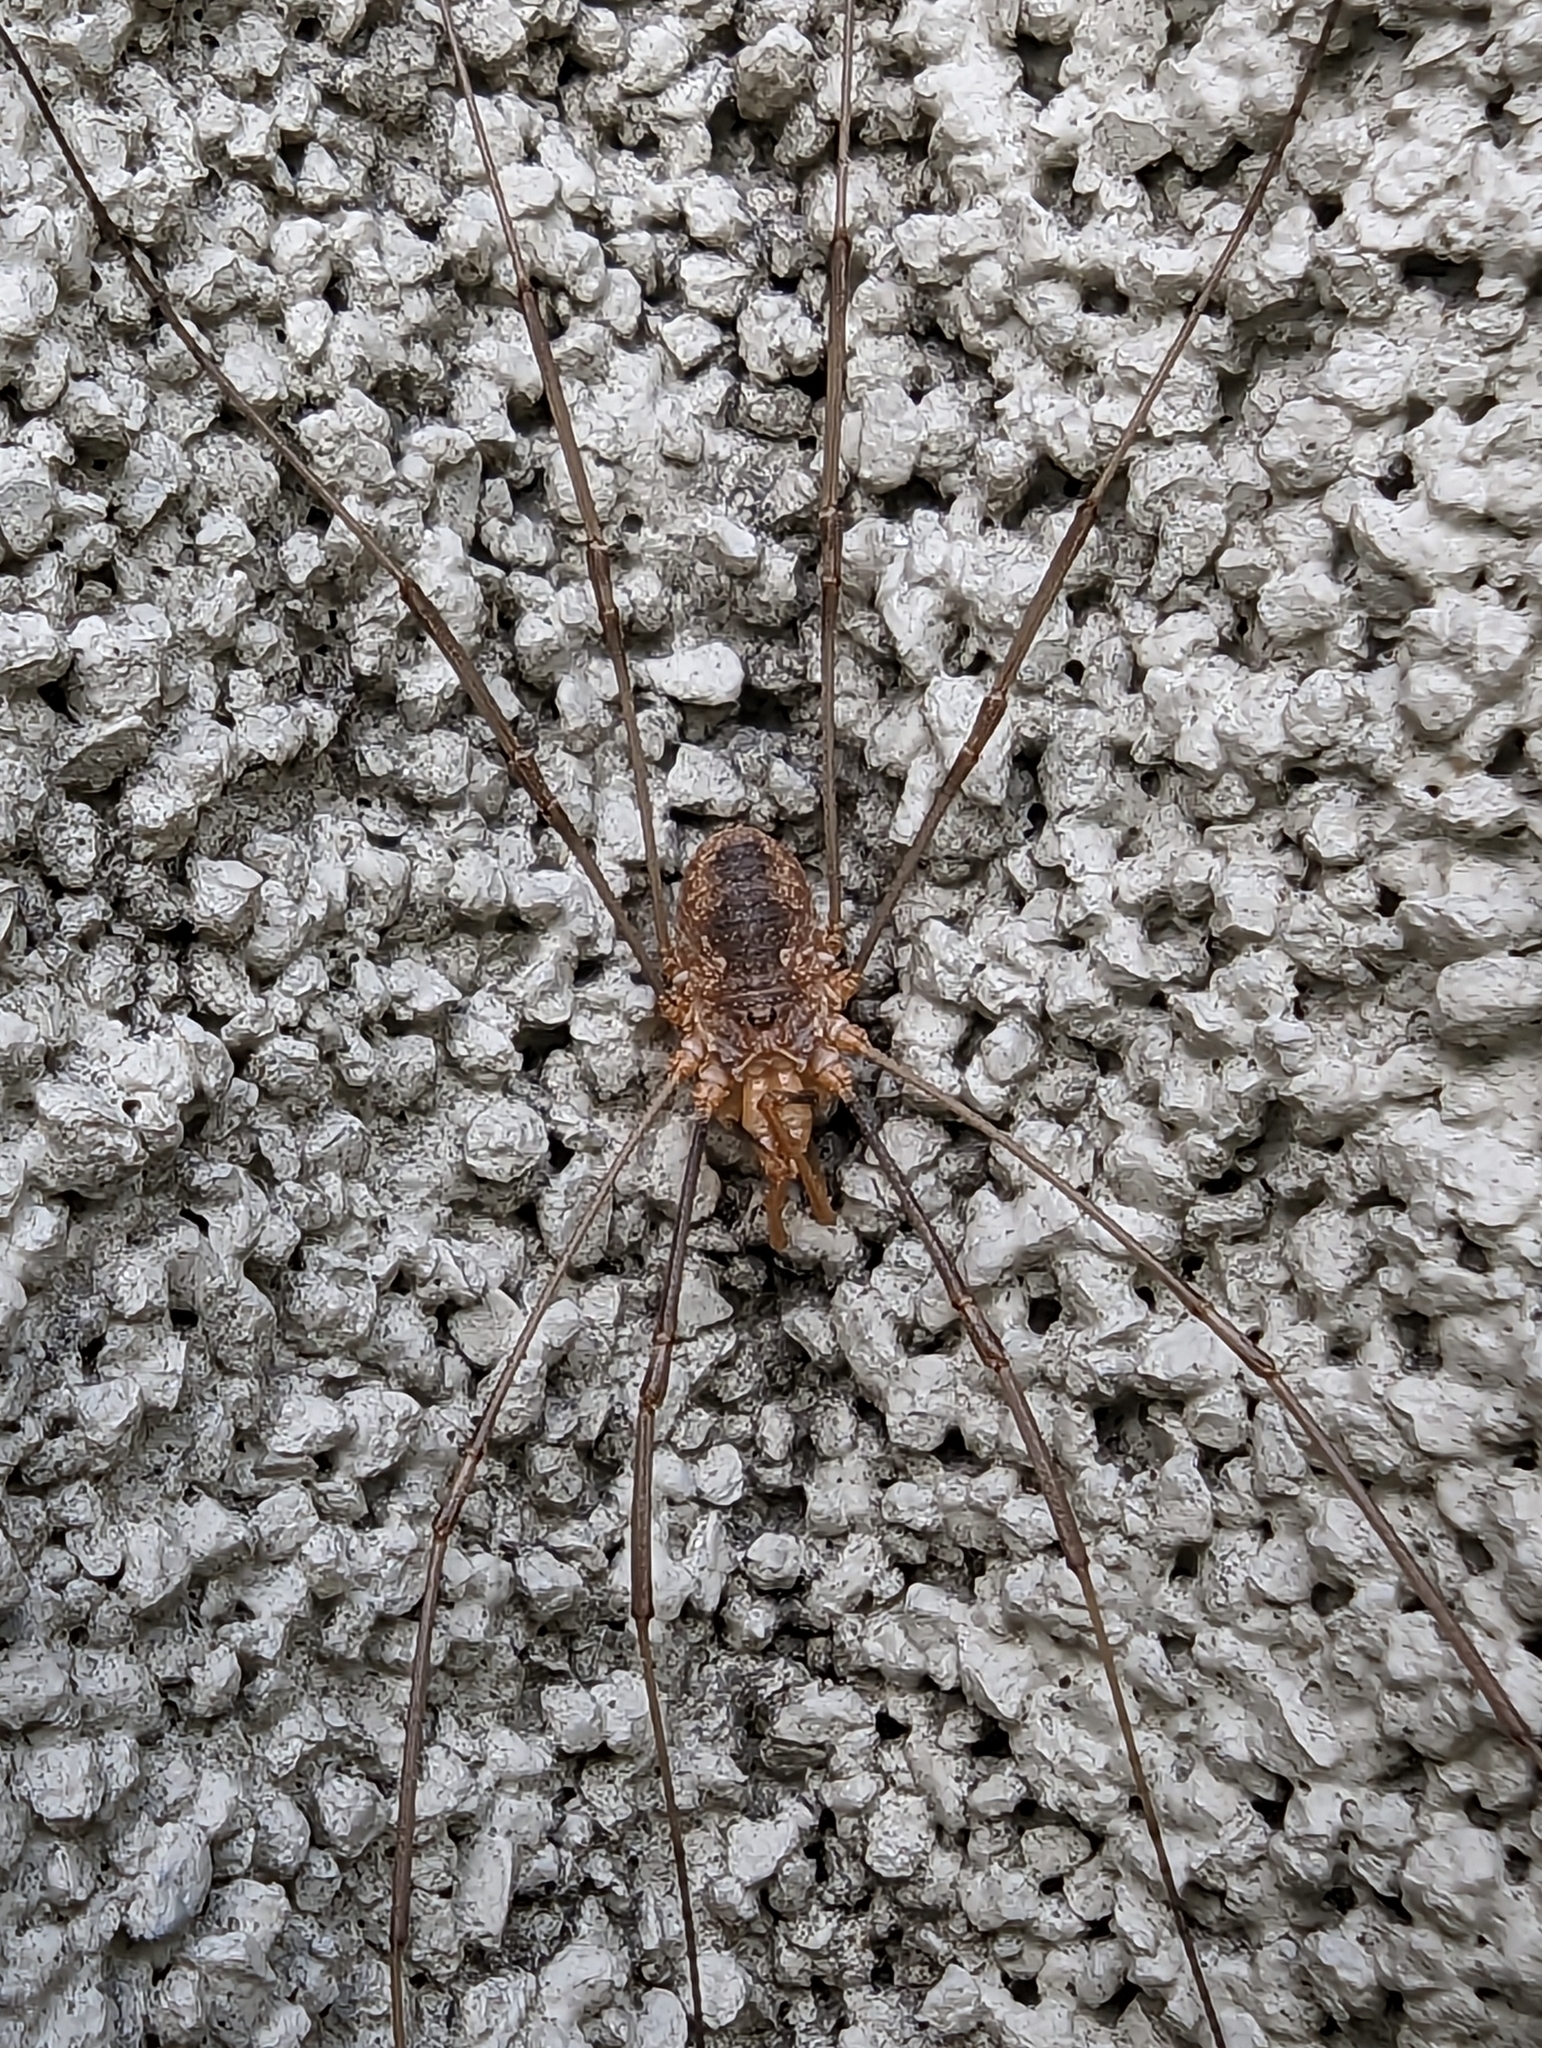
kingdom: Animalia
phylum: Arthropoda
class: Arachnida
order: Opiliones
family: Phalangiidae
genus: Phalangium
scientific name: Phalangium opilio
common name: Daddy longleg
